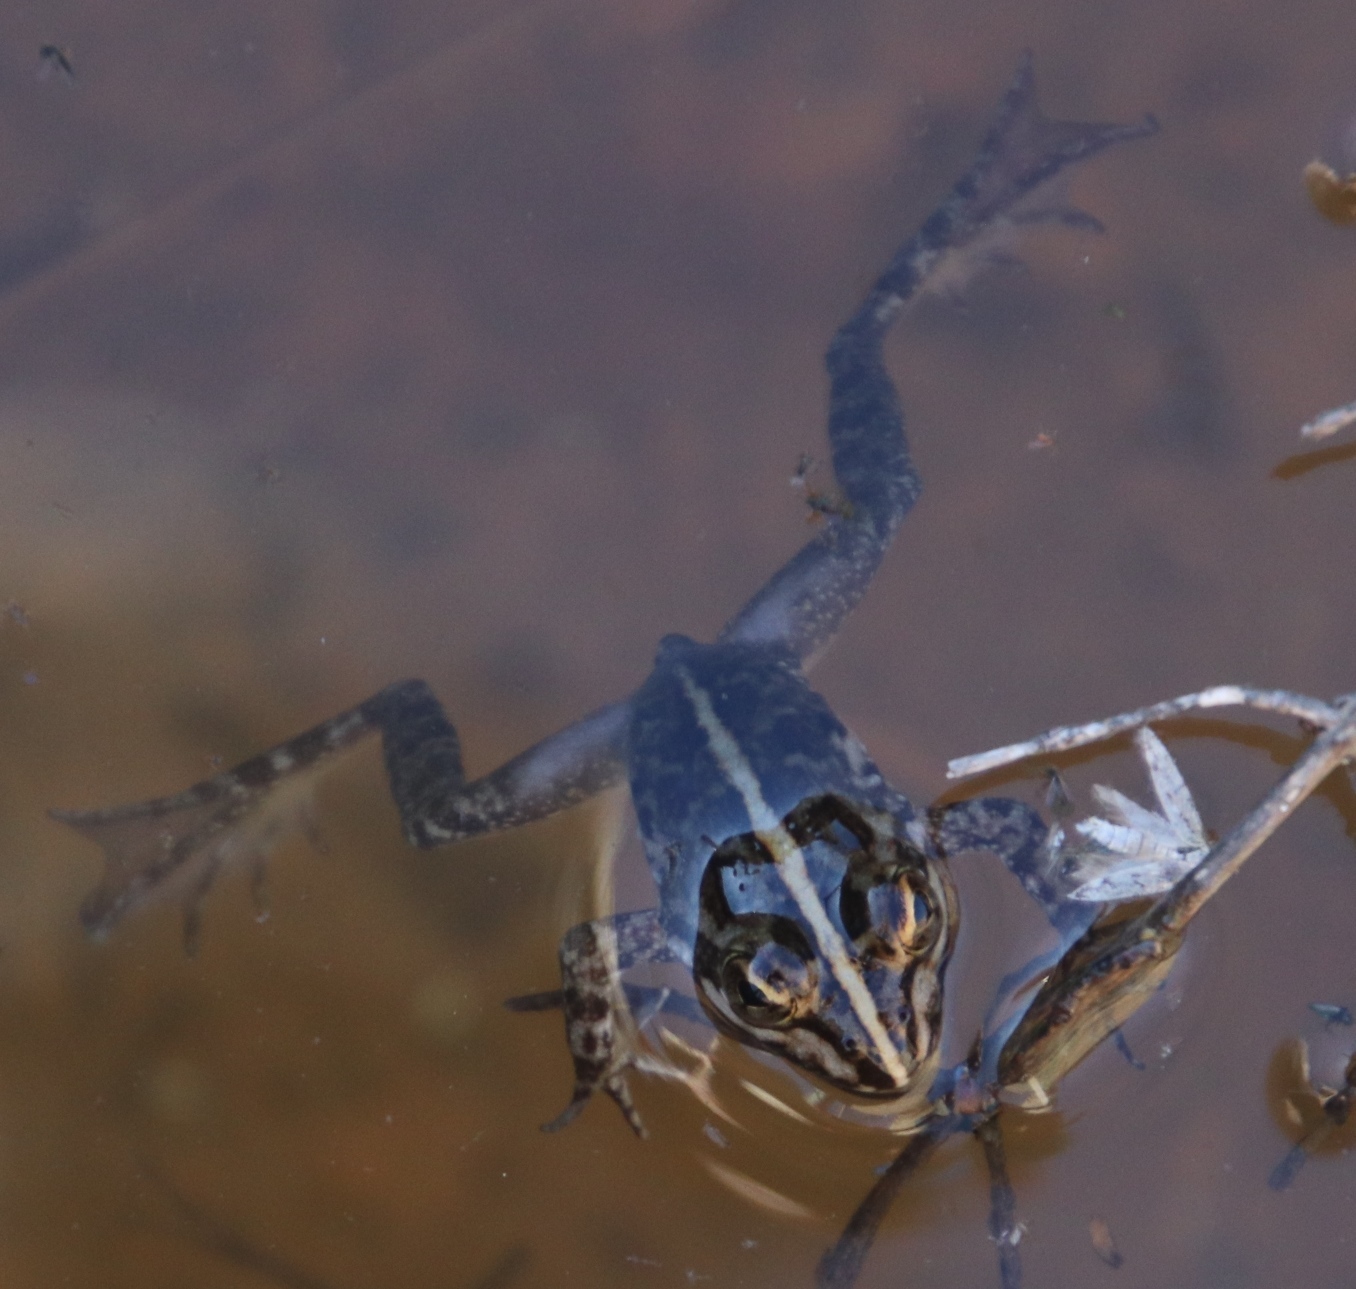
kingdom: Animalia
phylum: Chordata
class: Amphibia
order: Anura
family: Pyxicephalidae
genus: Amietia
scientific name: Amietia fuscigula
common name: Cape rana
